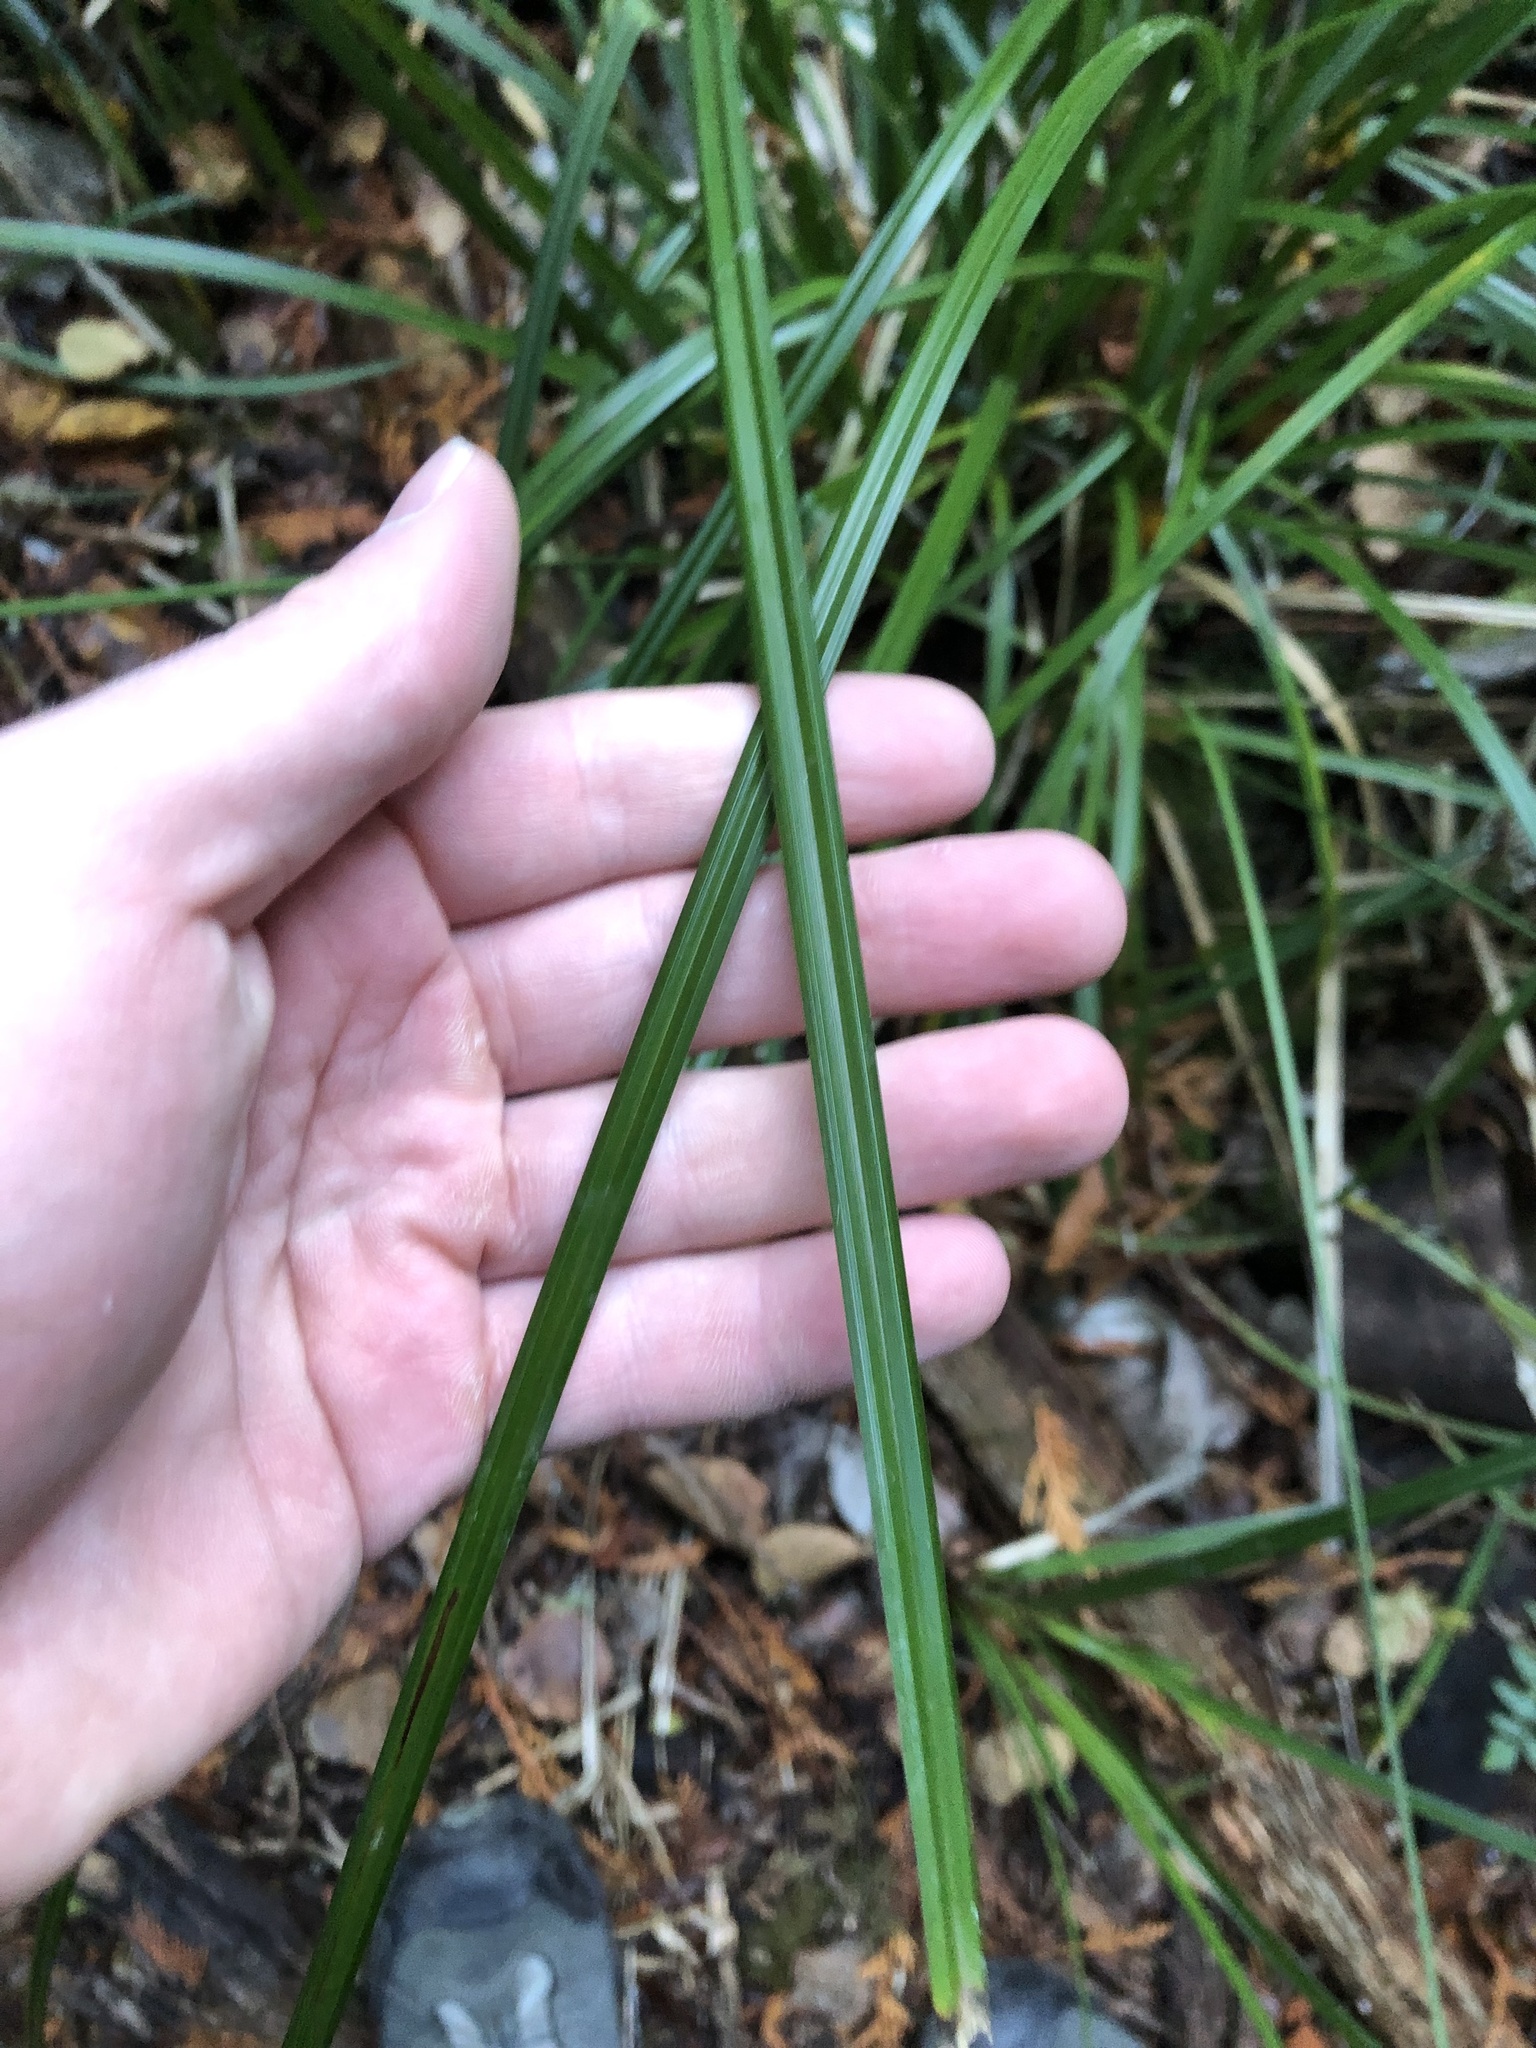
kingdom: Plantae
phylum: Tracheophyta
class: Liliopsida
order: Poales
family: Cyperaceae
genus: Carex
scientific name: Carex obnupta
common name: Slough sedge
